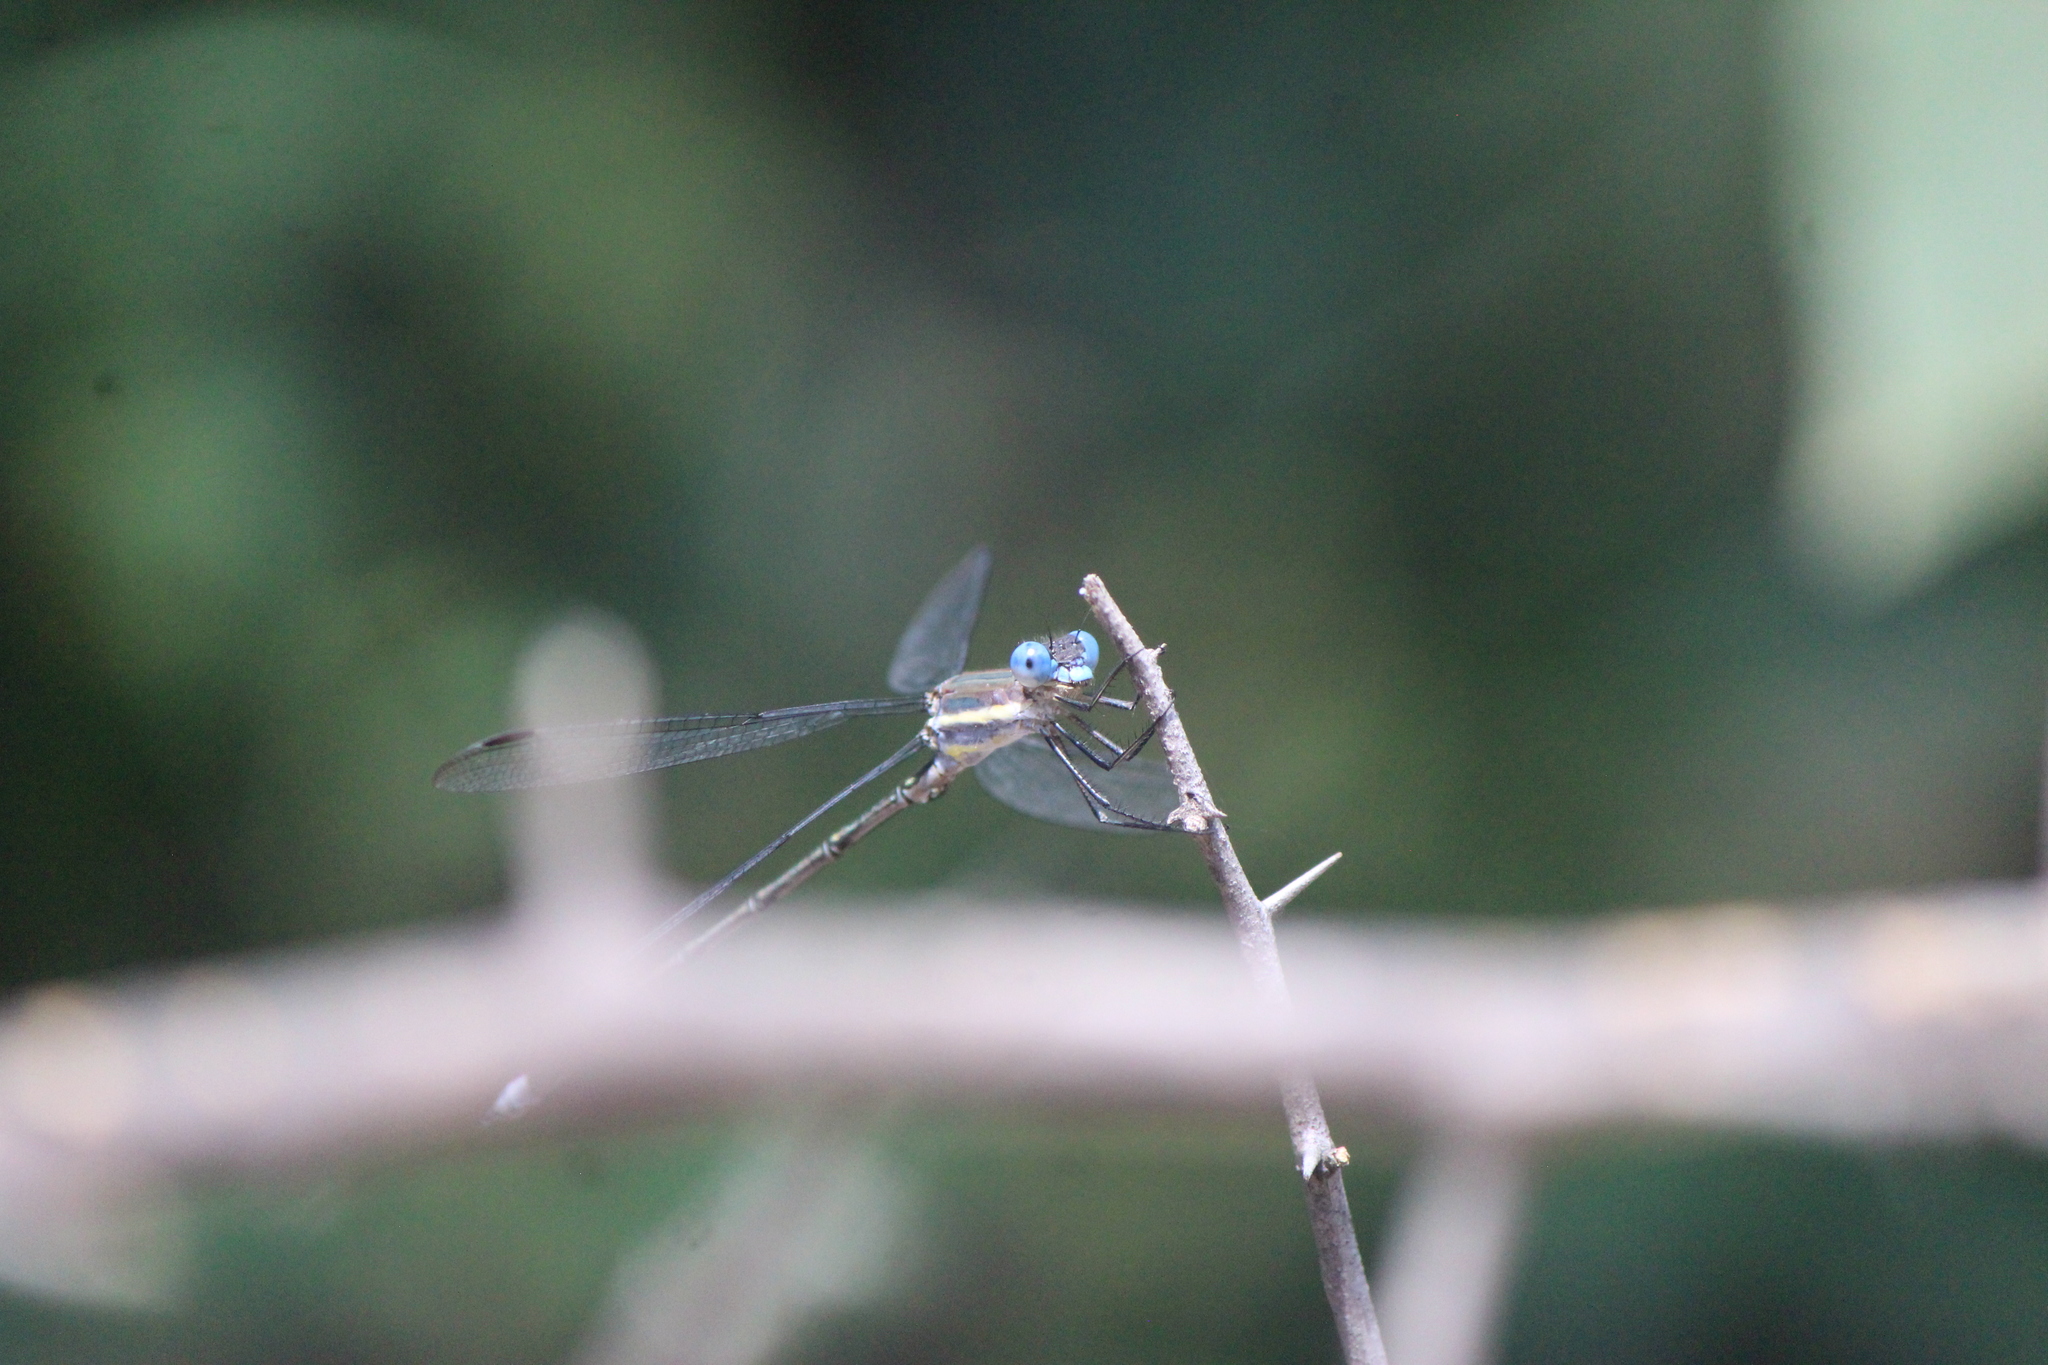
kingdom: Animalia
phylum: Arthropoda
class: Insecta
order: Odonata
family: Lestidae
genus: Archilestes
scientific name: Archilestes grandis
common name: Great spreadwing
